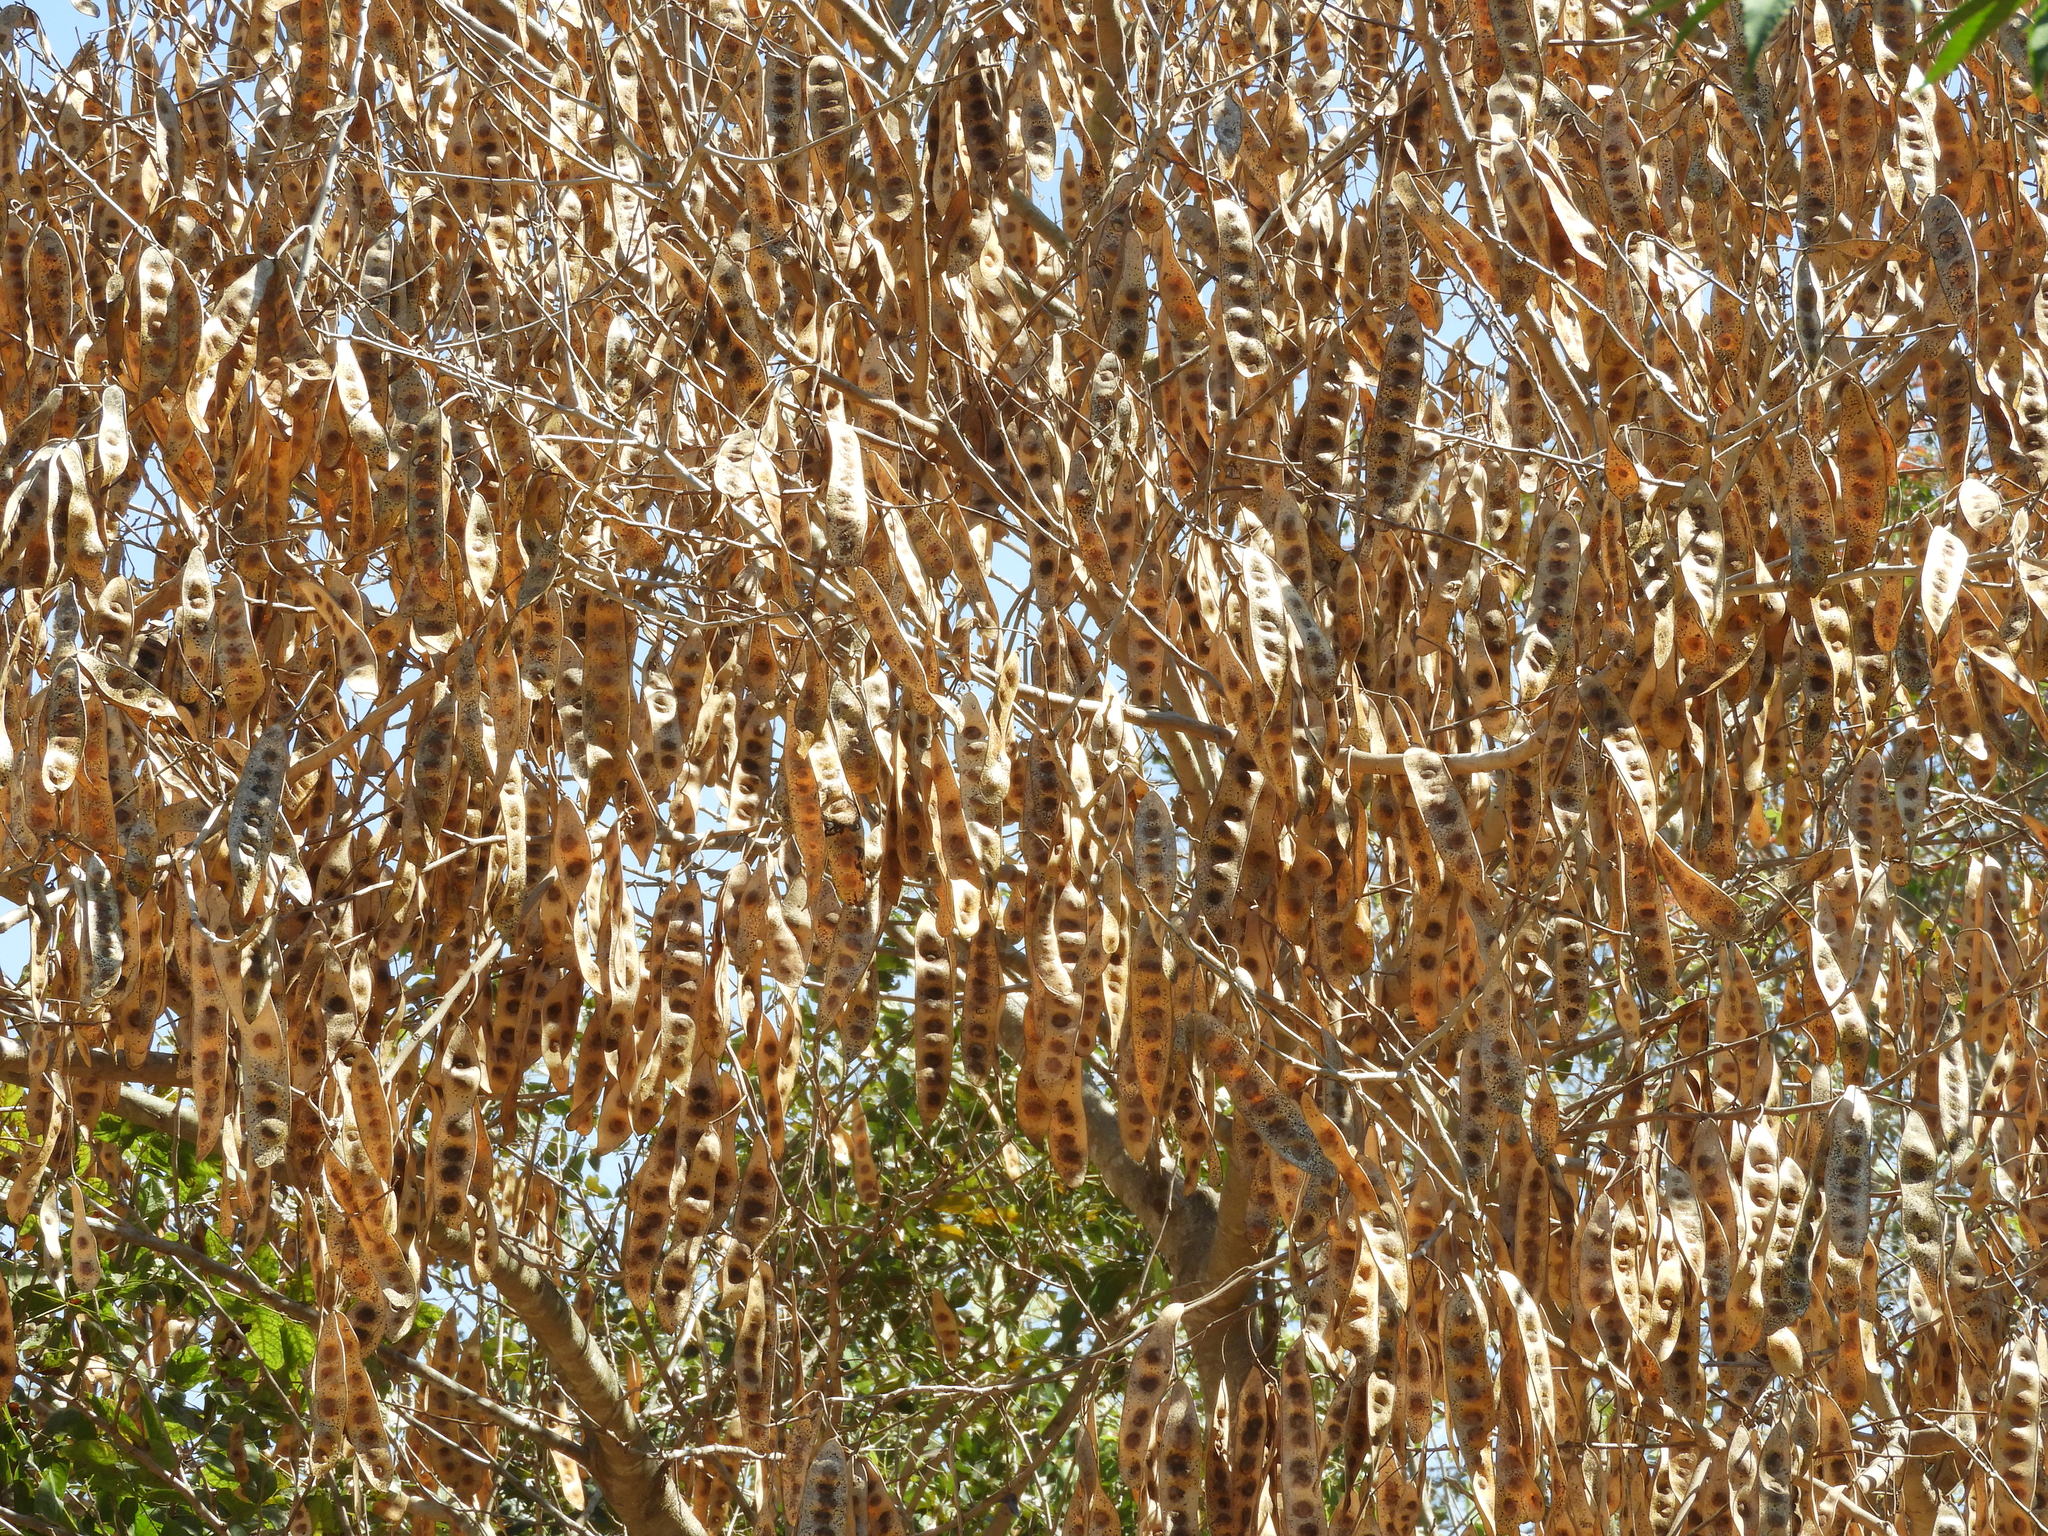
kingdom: Plantae
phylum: Tracheophyta
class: Magnoliopsida
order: Fabales
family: Fabaceae
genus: Albizia
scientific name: Albizia lebbeck
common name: Woman's tongue
